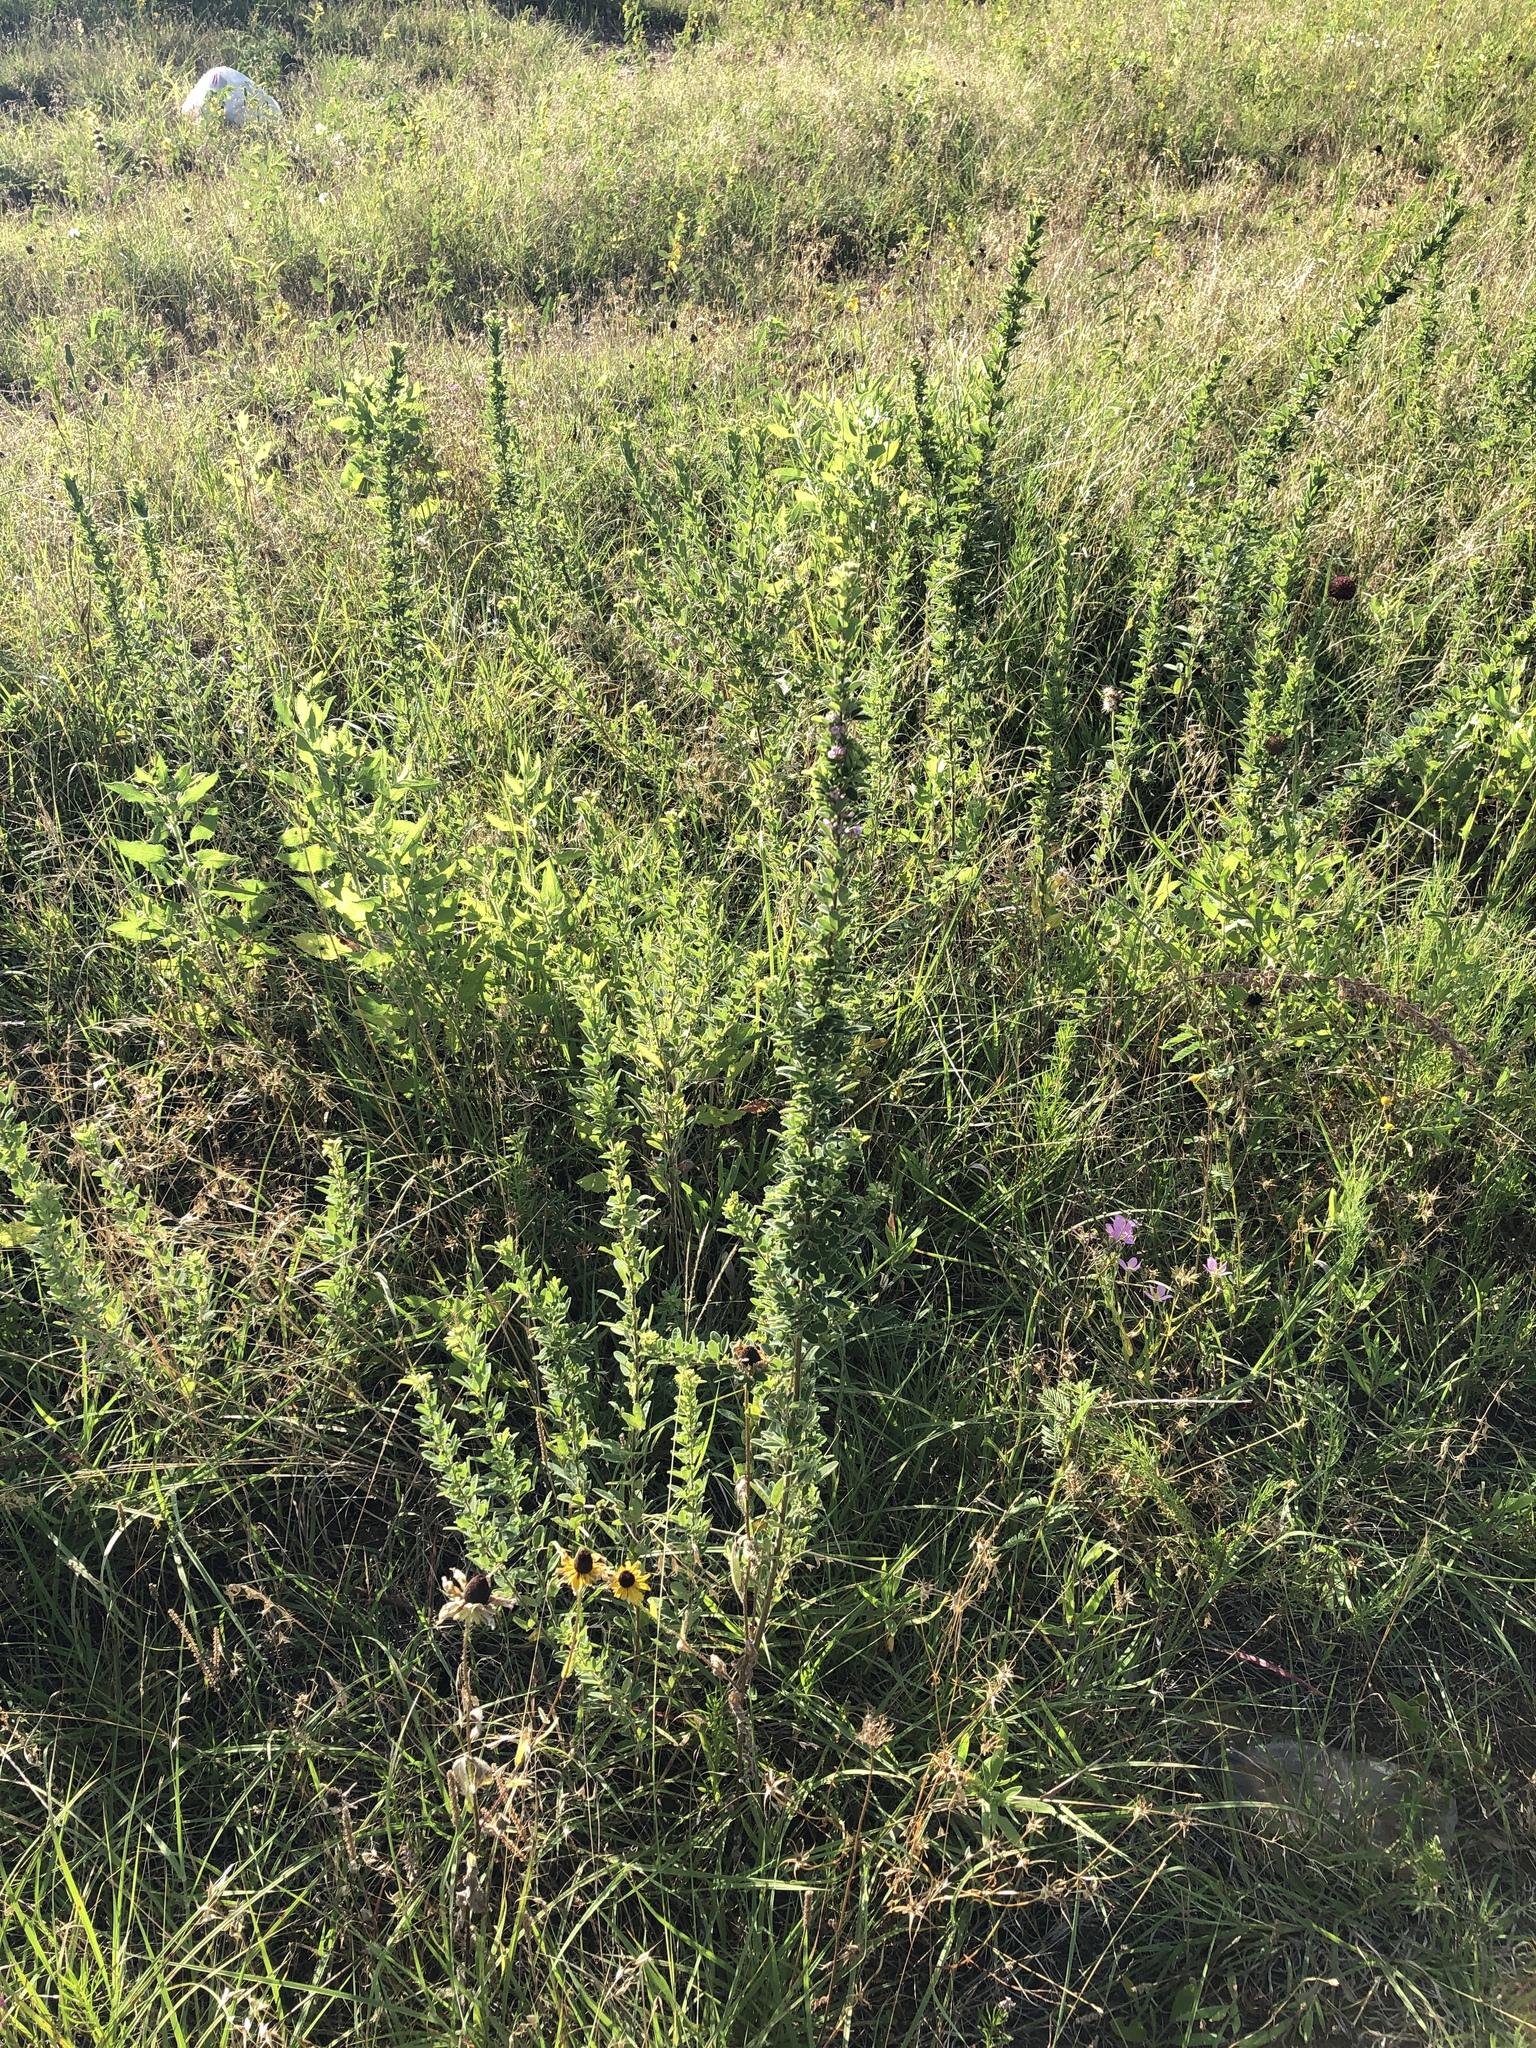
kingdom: Plantae
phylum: Tracheophyta
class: Magnoliopsida
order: Fabales
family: Fabaceae
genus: Lespedeza
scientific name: Lespedeza virginica
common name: Slender bush-clover
